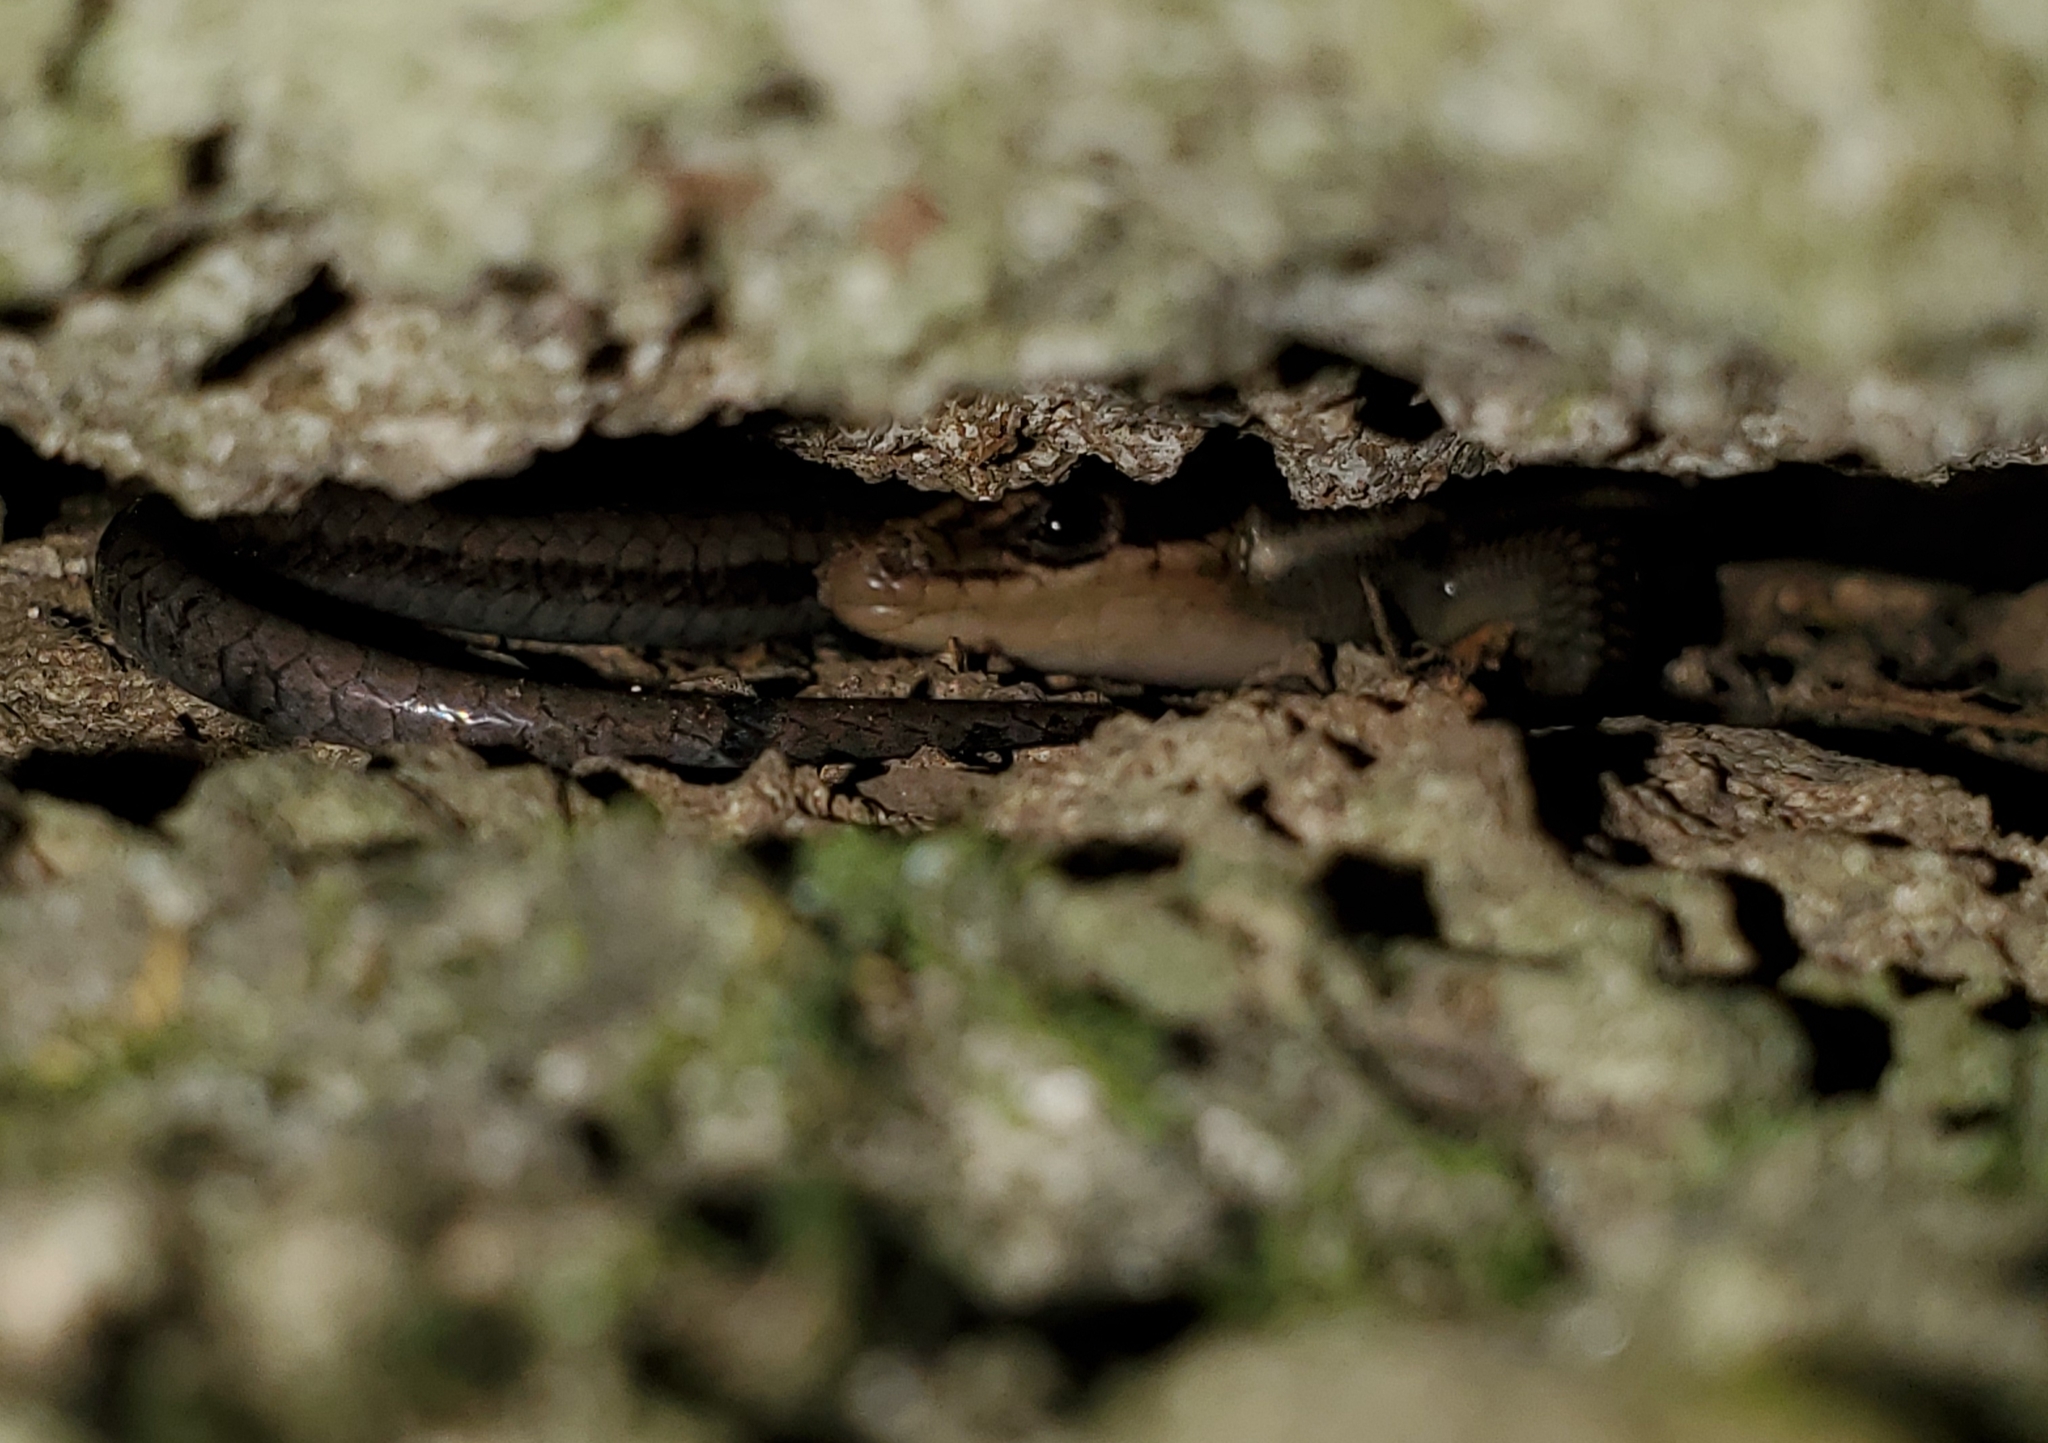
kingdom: Animalia
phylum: Chordata
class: Squamata
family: Scincidae
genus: Plestiodon
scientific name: Plestiodon fasciatus
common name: Five-lined skink
